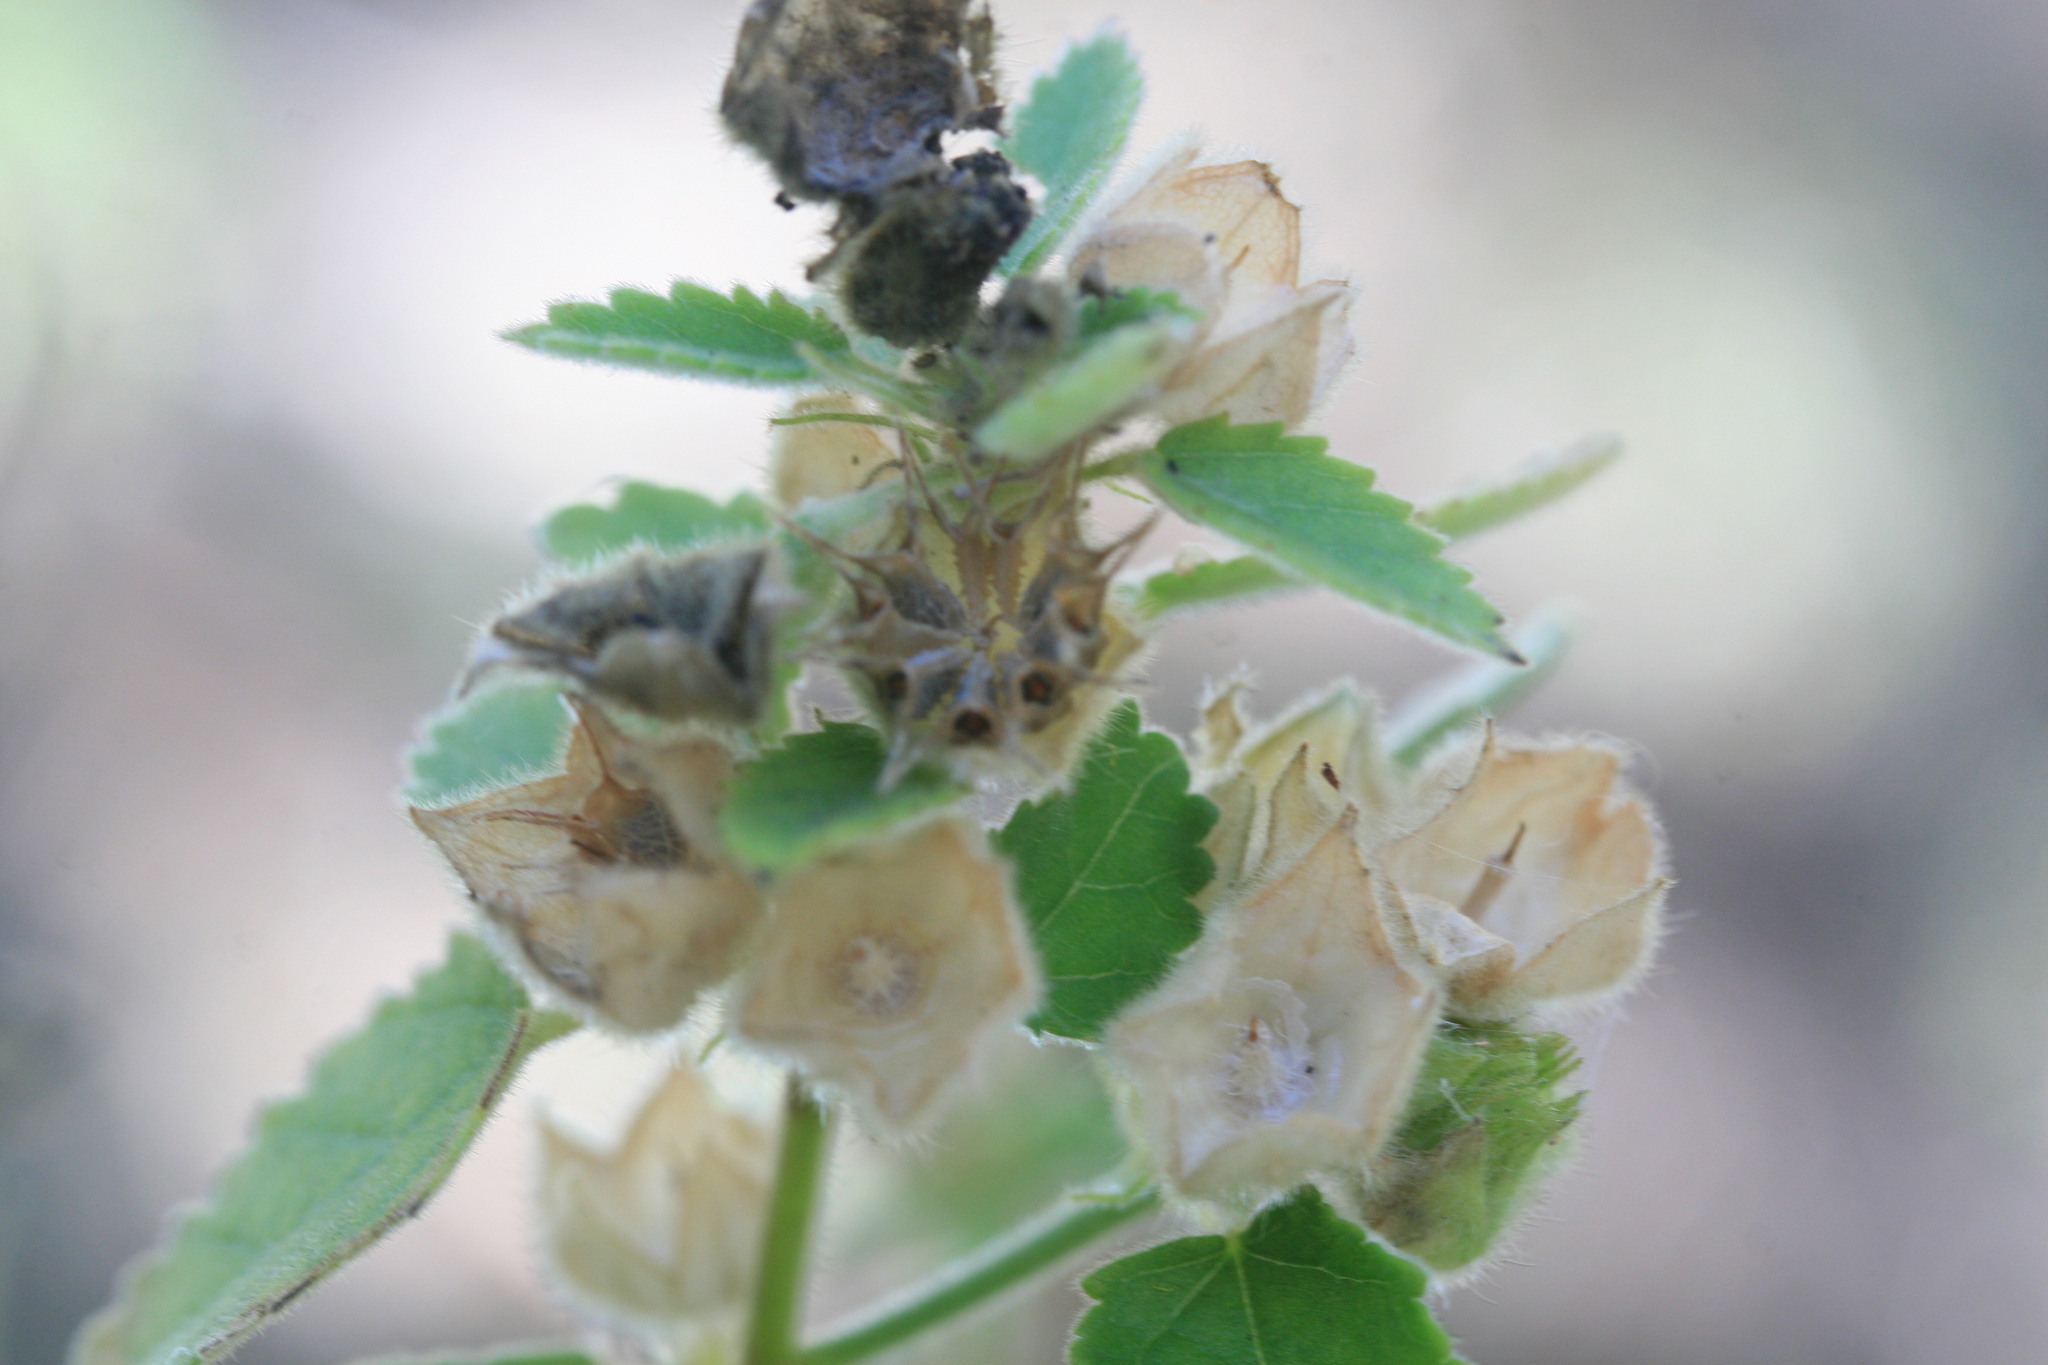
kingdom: Plantae
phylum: Tracheophyta
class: Magnoliopsida
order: Malvales
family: Malvaceae
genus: Sida
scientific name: Sida rohlenae
